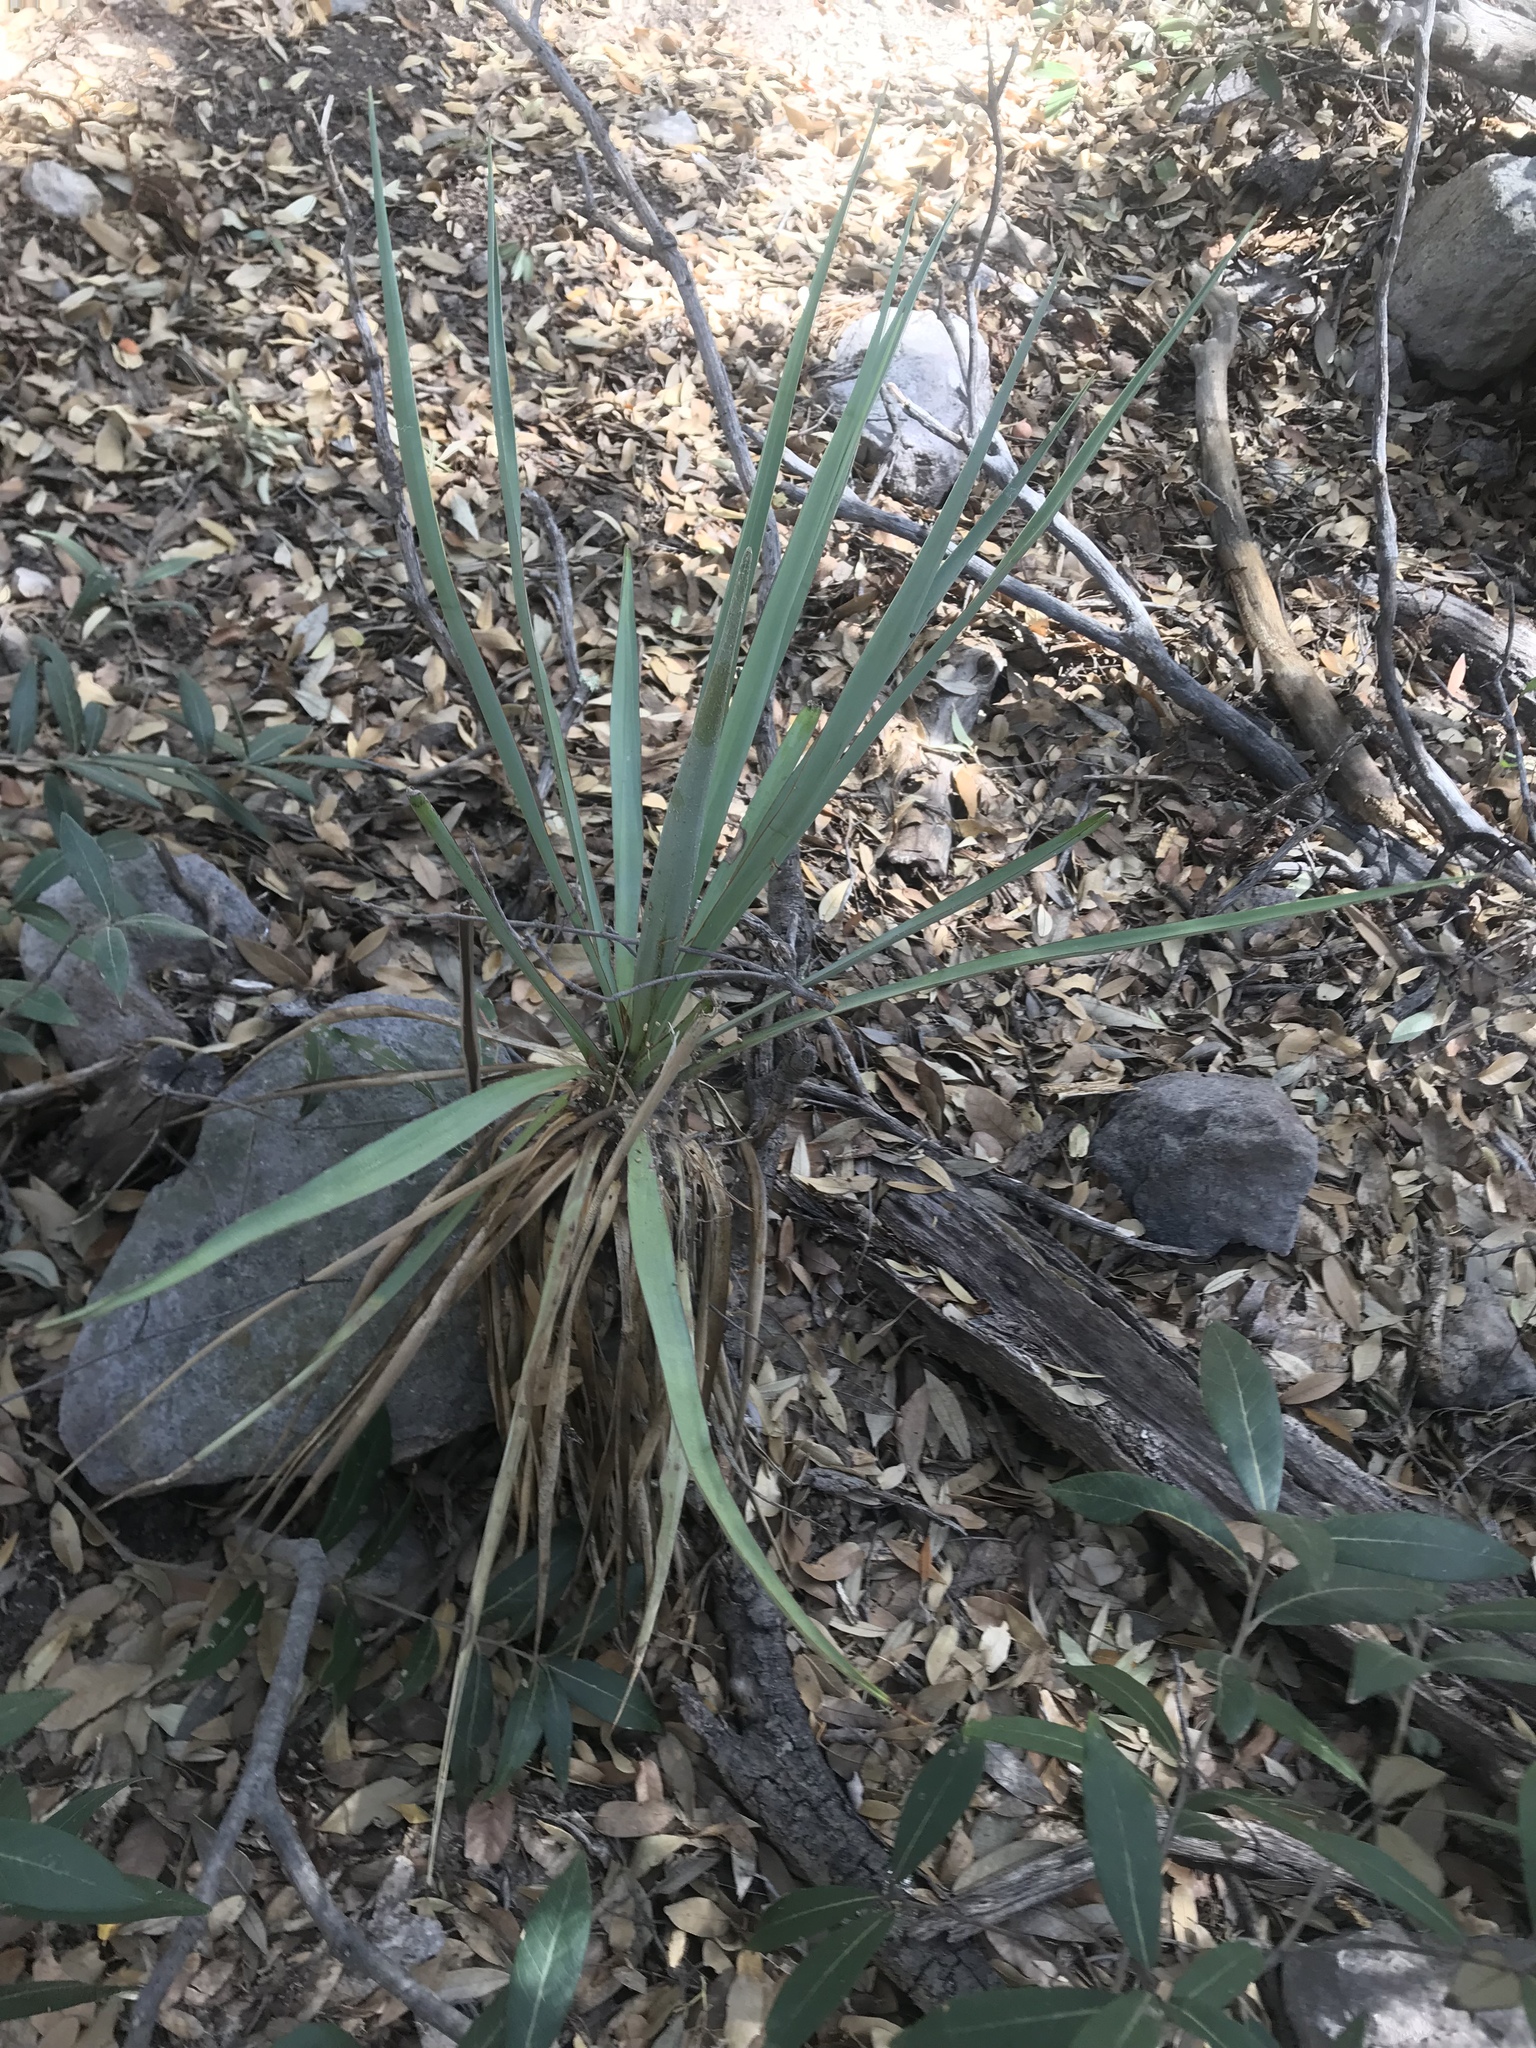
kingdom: Plantae
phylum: Tracheophyta
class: Liliopsida
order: Asparagales
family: Asparagaceae
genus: Yucca
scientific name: Yucca madrensis
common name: Hoary yucca
